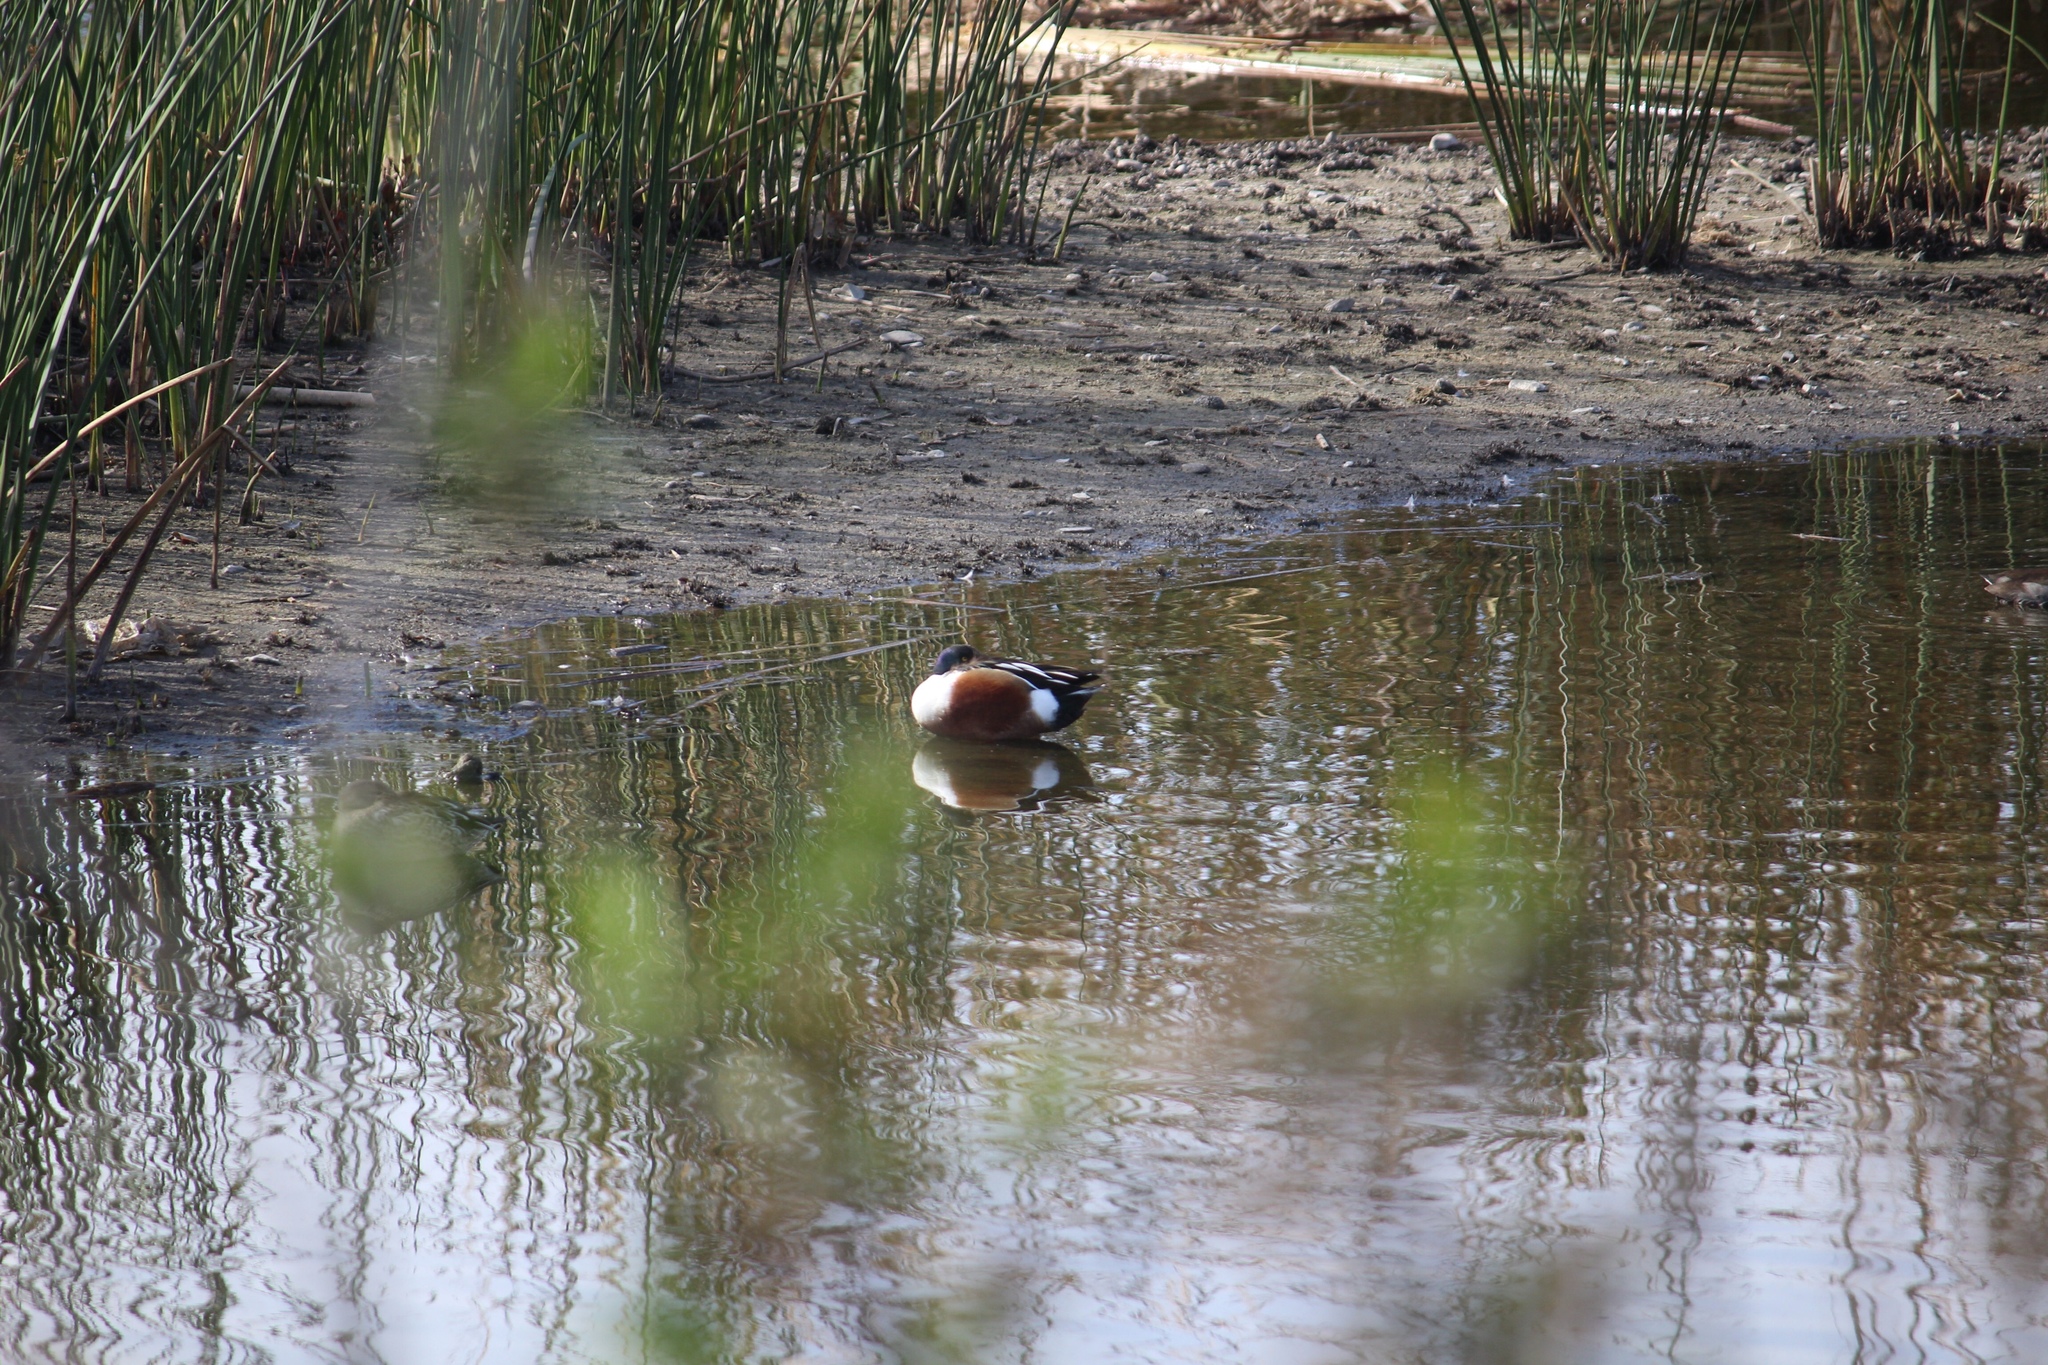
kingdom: Animalia
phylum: Chordata
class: Aves
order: Anseriformes
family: Anatidae
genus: Spatula
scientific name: Spatula clypeata
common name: Northern shoveler
